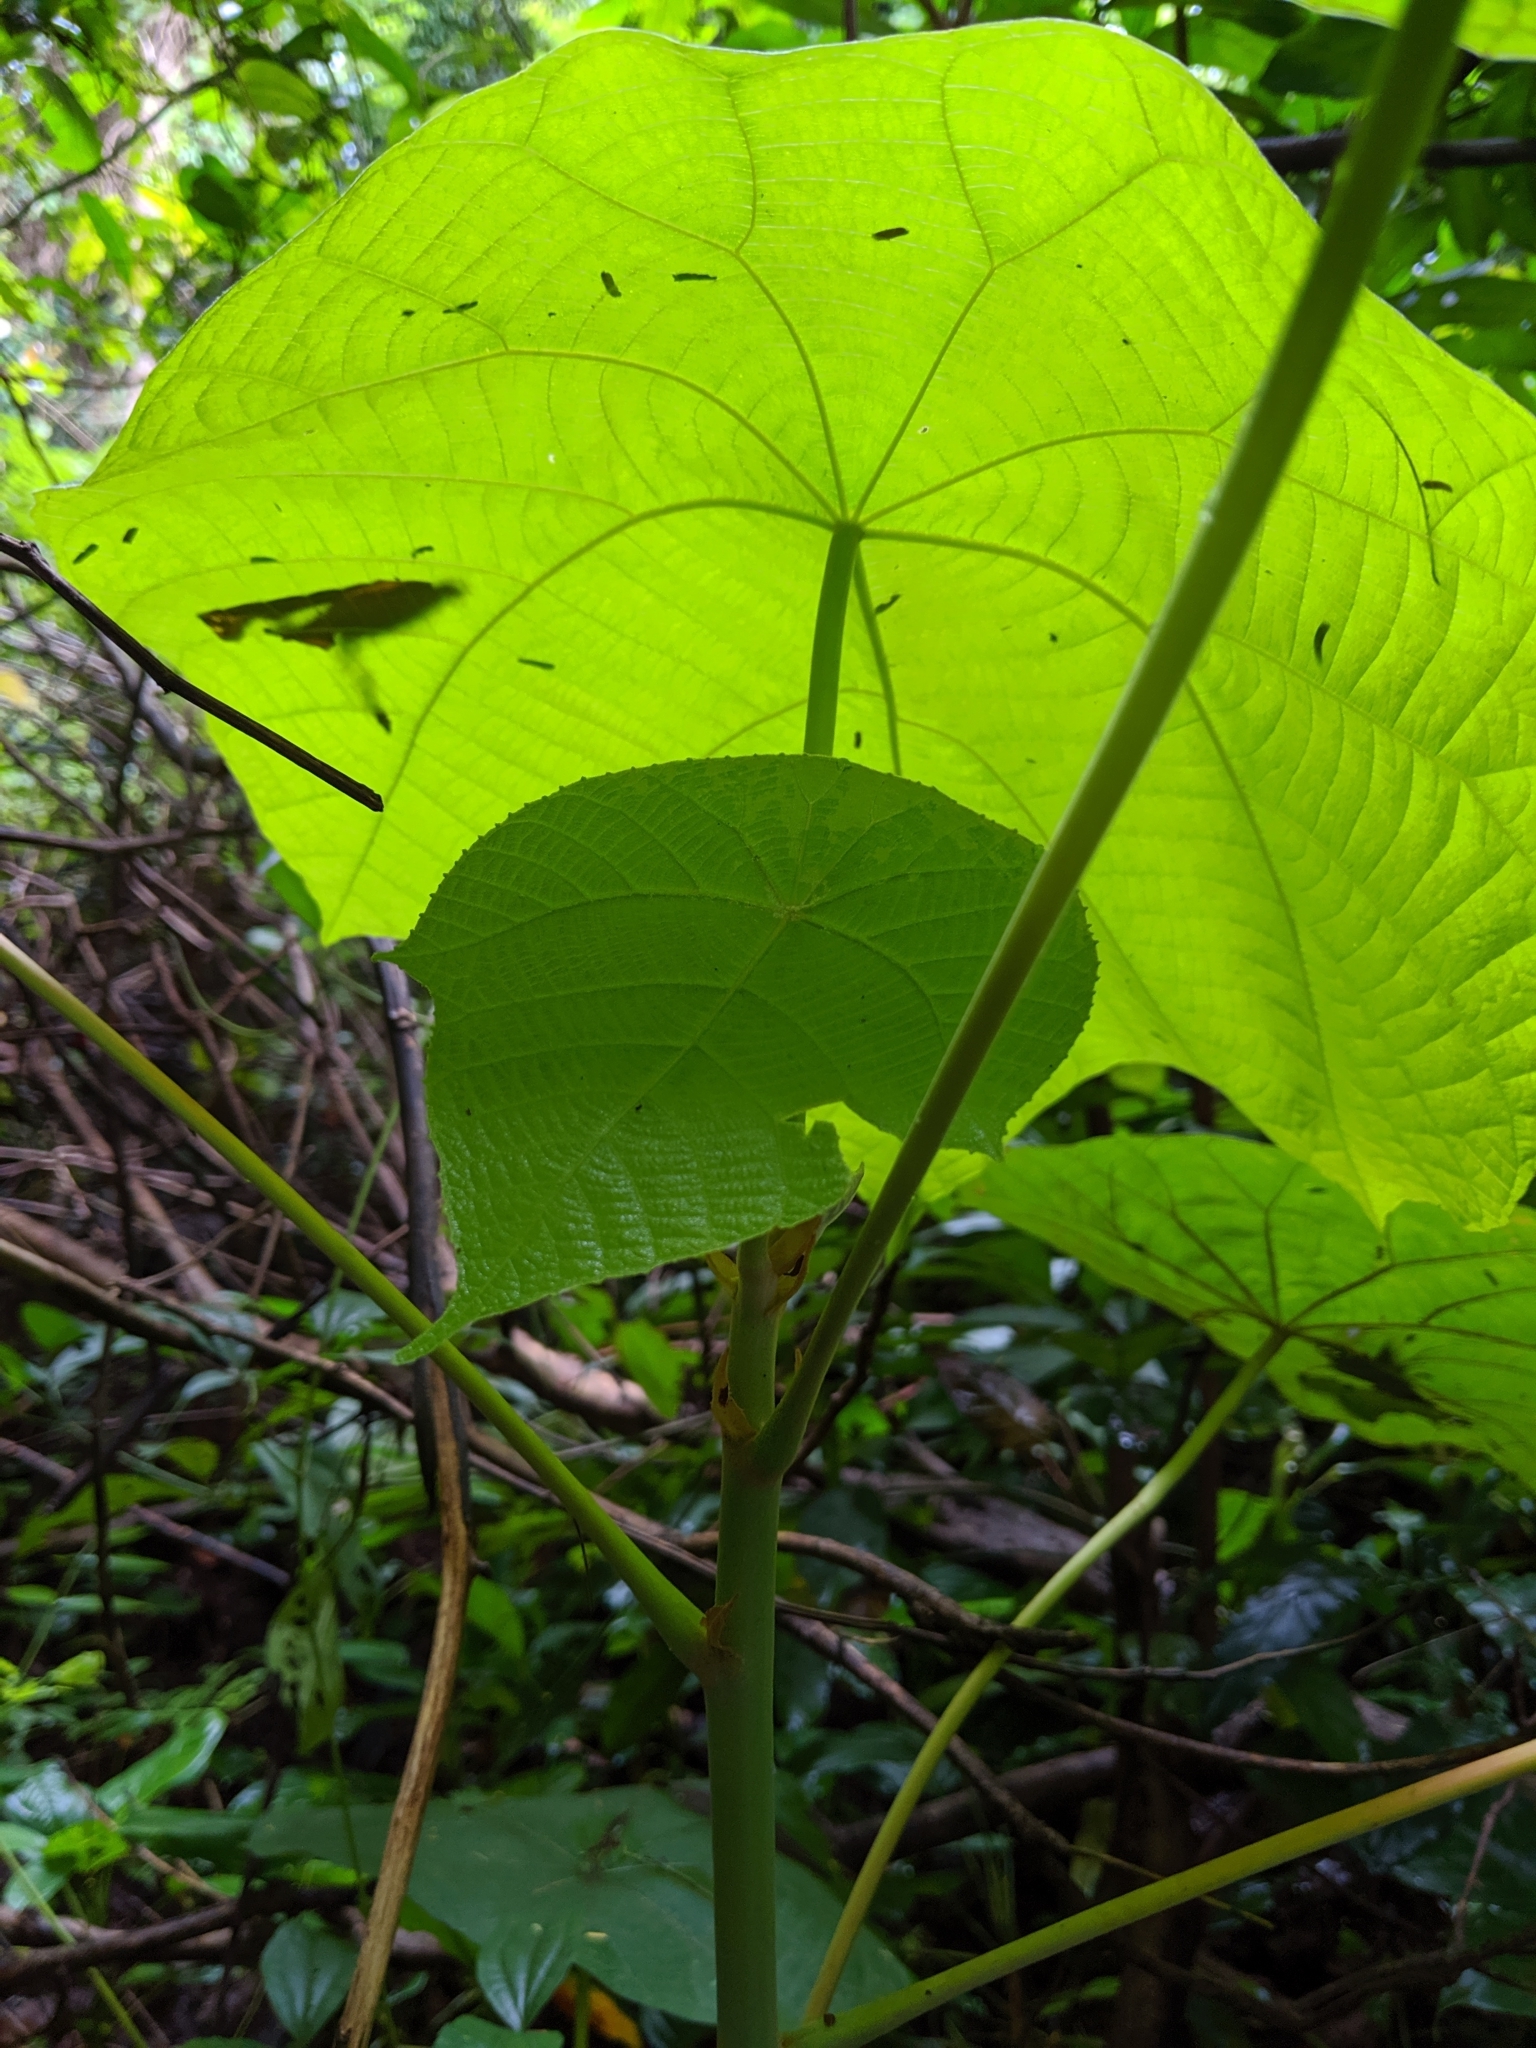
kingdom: Plantae
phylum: Tracheophyta
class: Magnoliopsida
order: Malpighiales
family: Euphorbiaceae
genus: Macaranga
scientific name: Macaranga tanarius
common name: Parasol leaf tree
